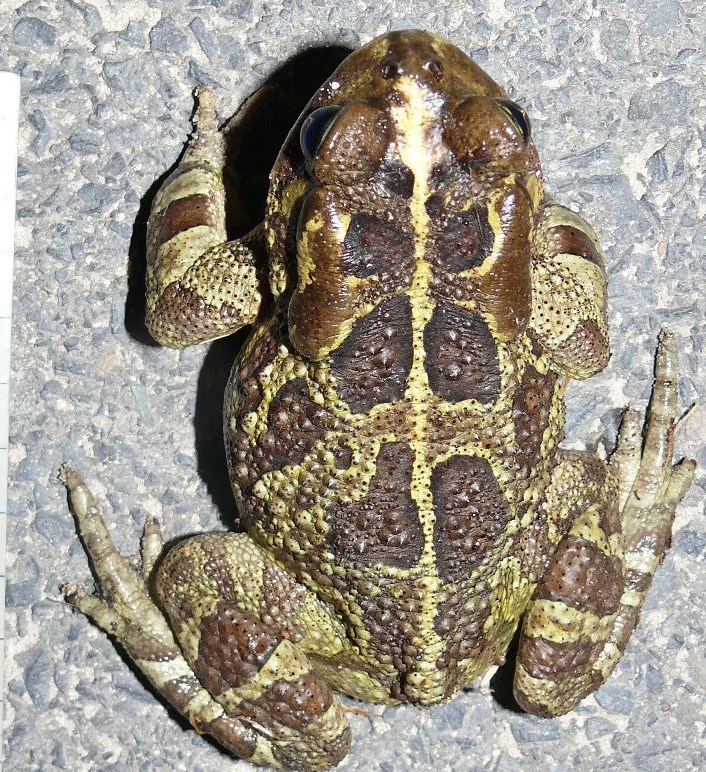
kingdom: Animalia
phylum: Chordata
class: Amphibia
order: Anura
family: Bufonidae
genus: Sclerophrys
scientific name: Sclerophrys pantherina
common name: Panther toad
